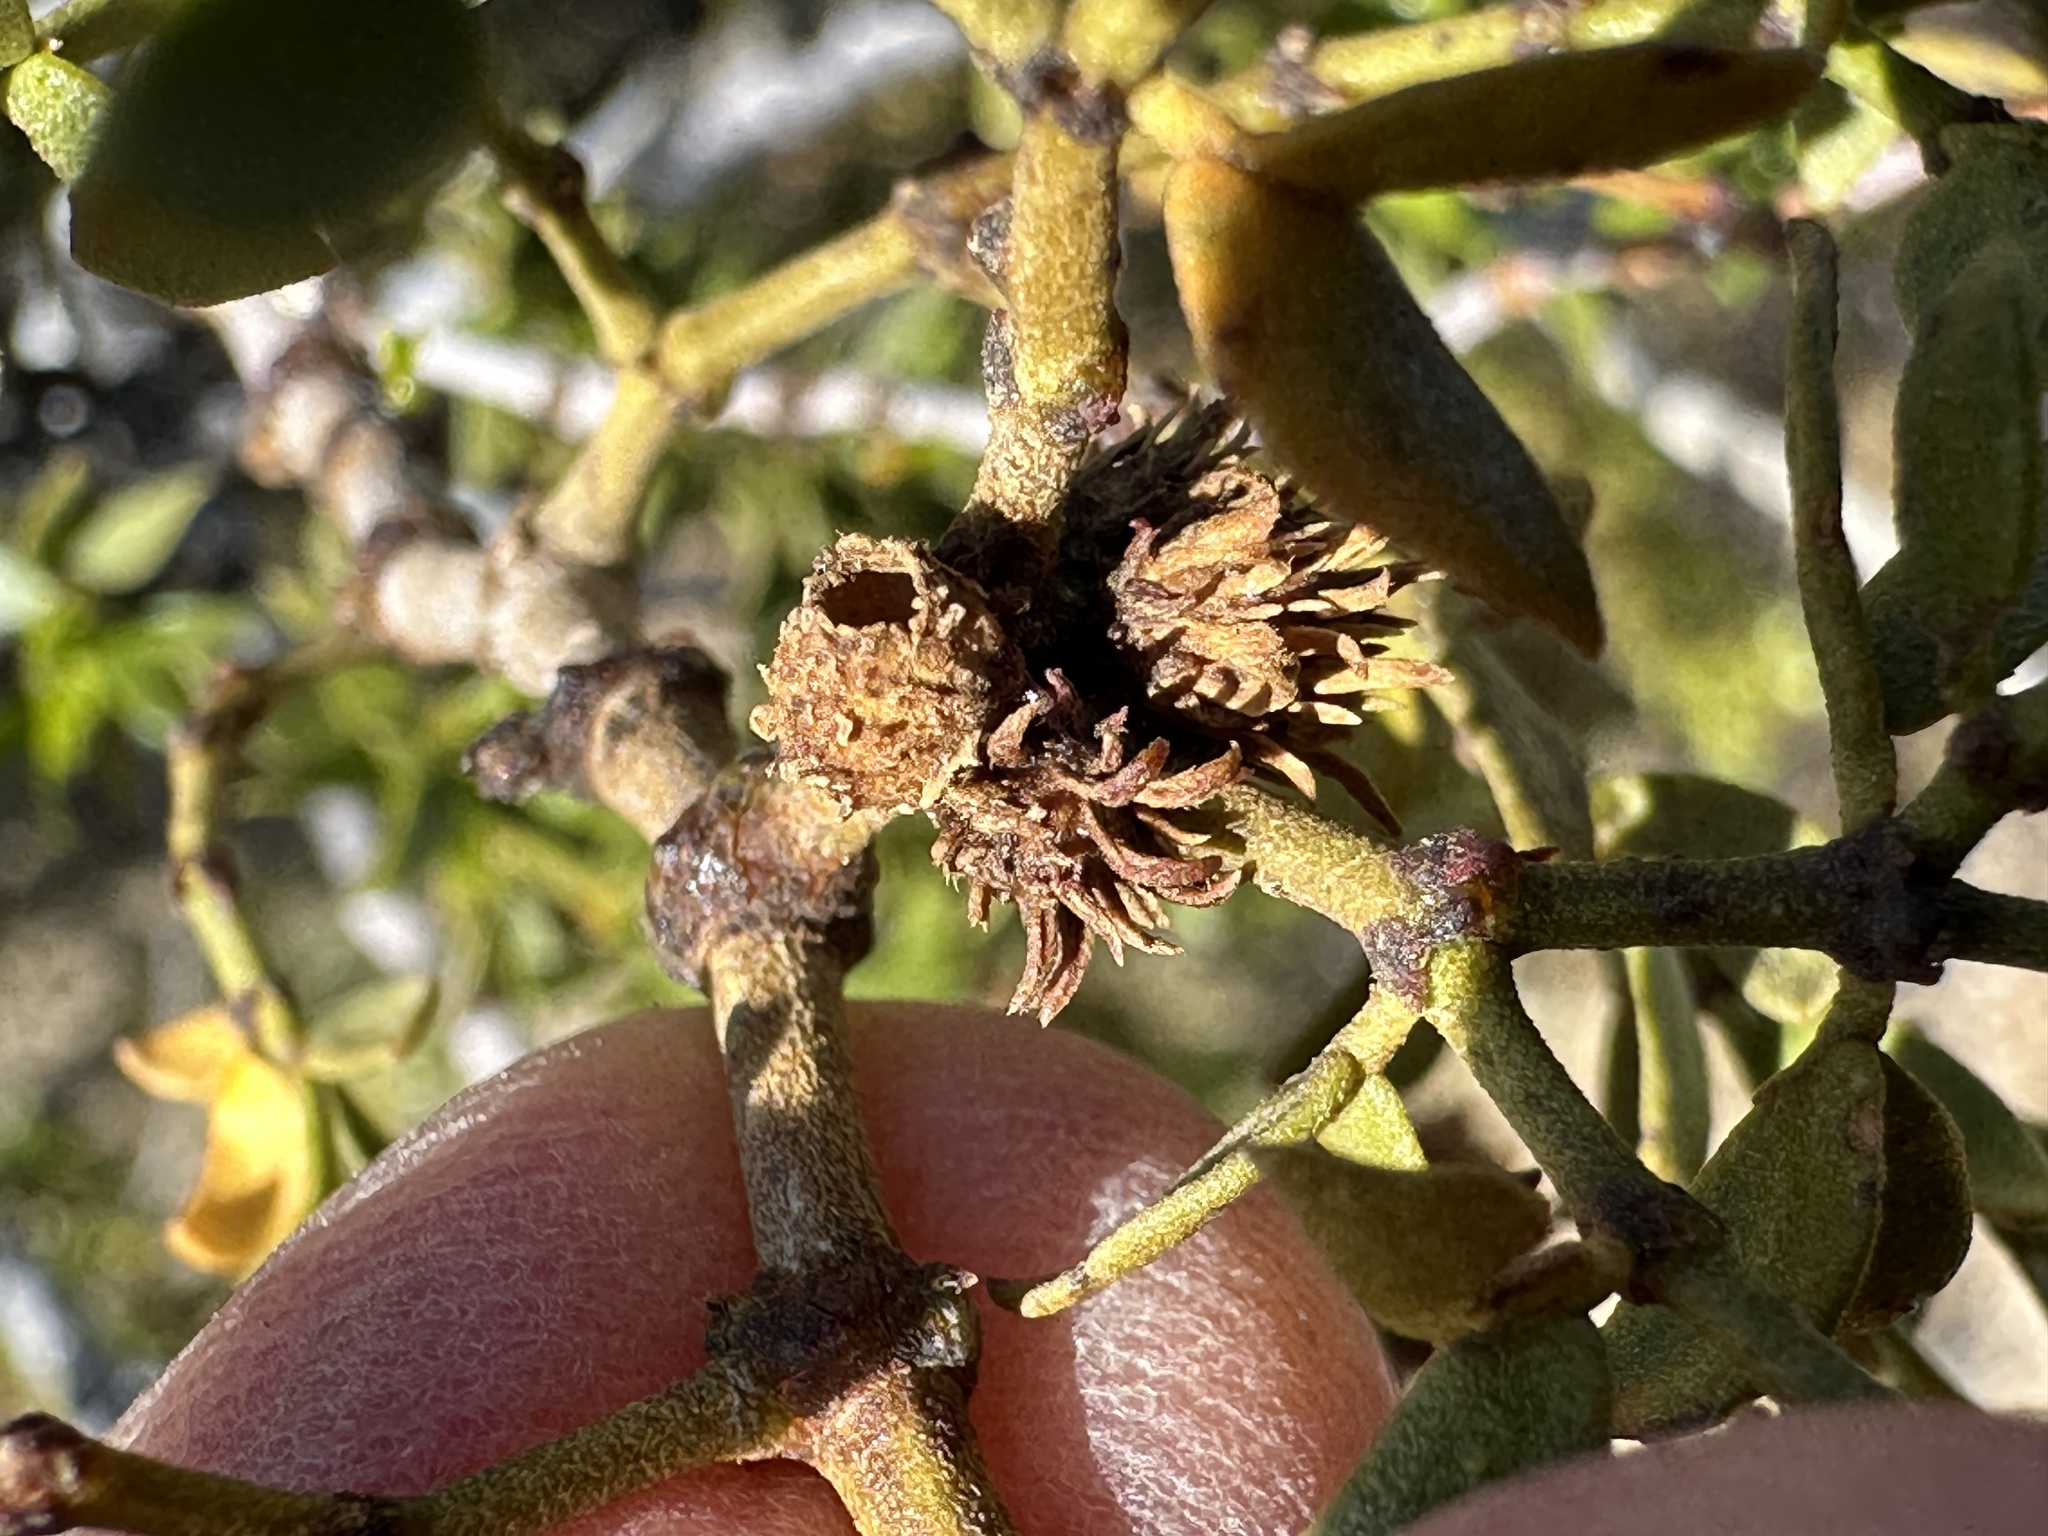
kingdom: Animalia
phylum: Arthropoda
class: Insecta
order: Diptera
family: Cecidomyiidae
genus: Asphondylia
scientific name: Asphondylia rosetta
